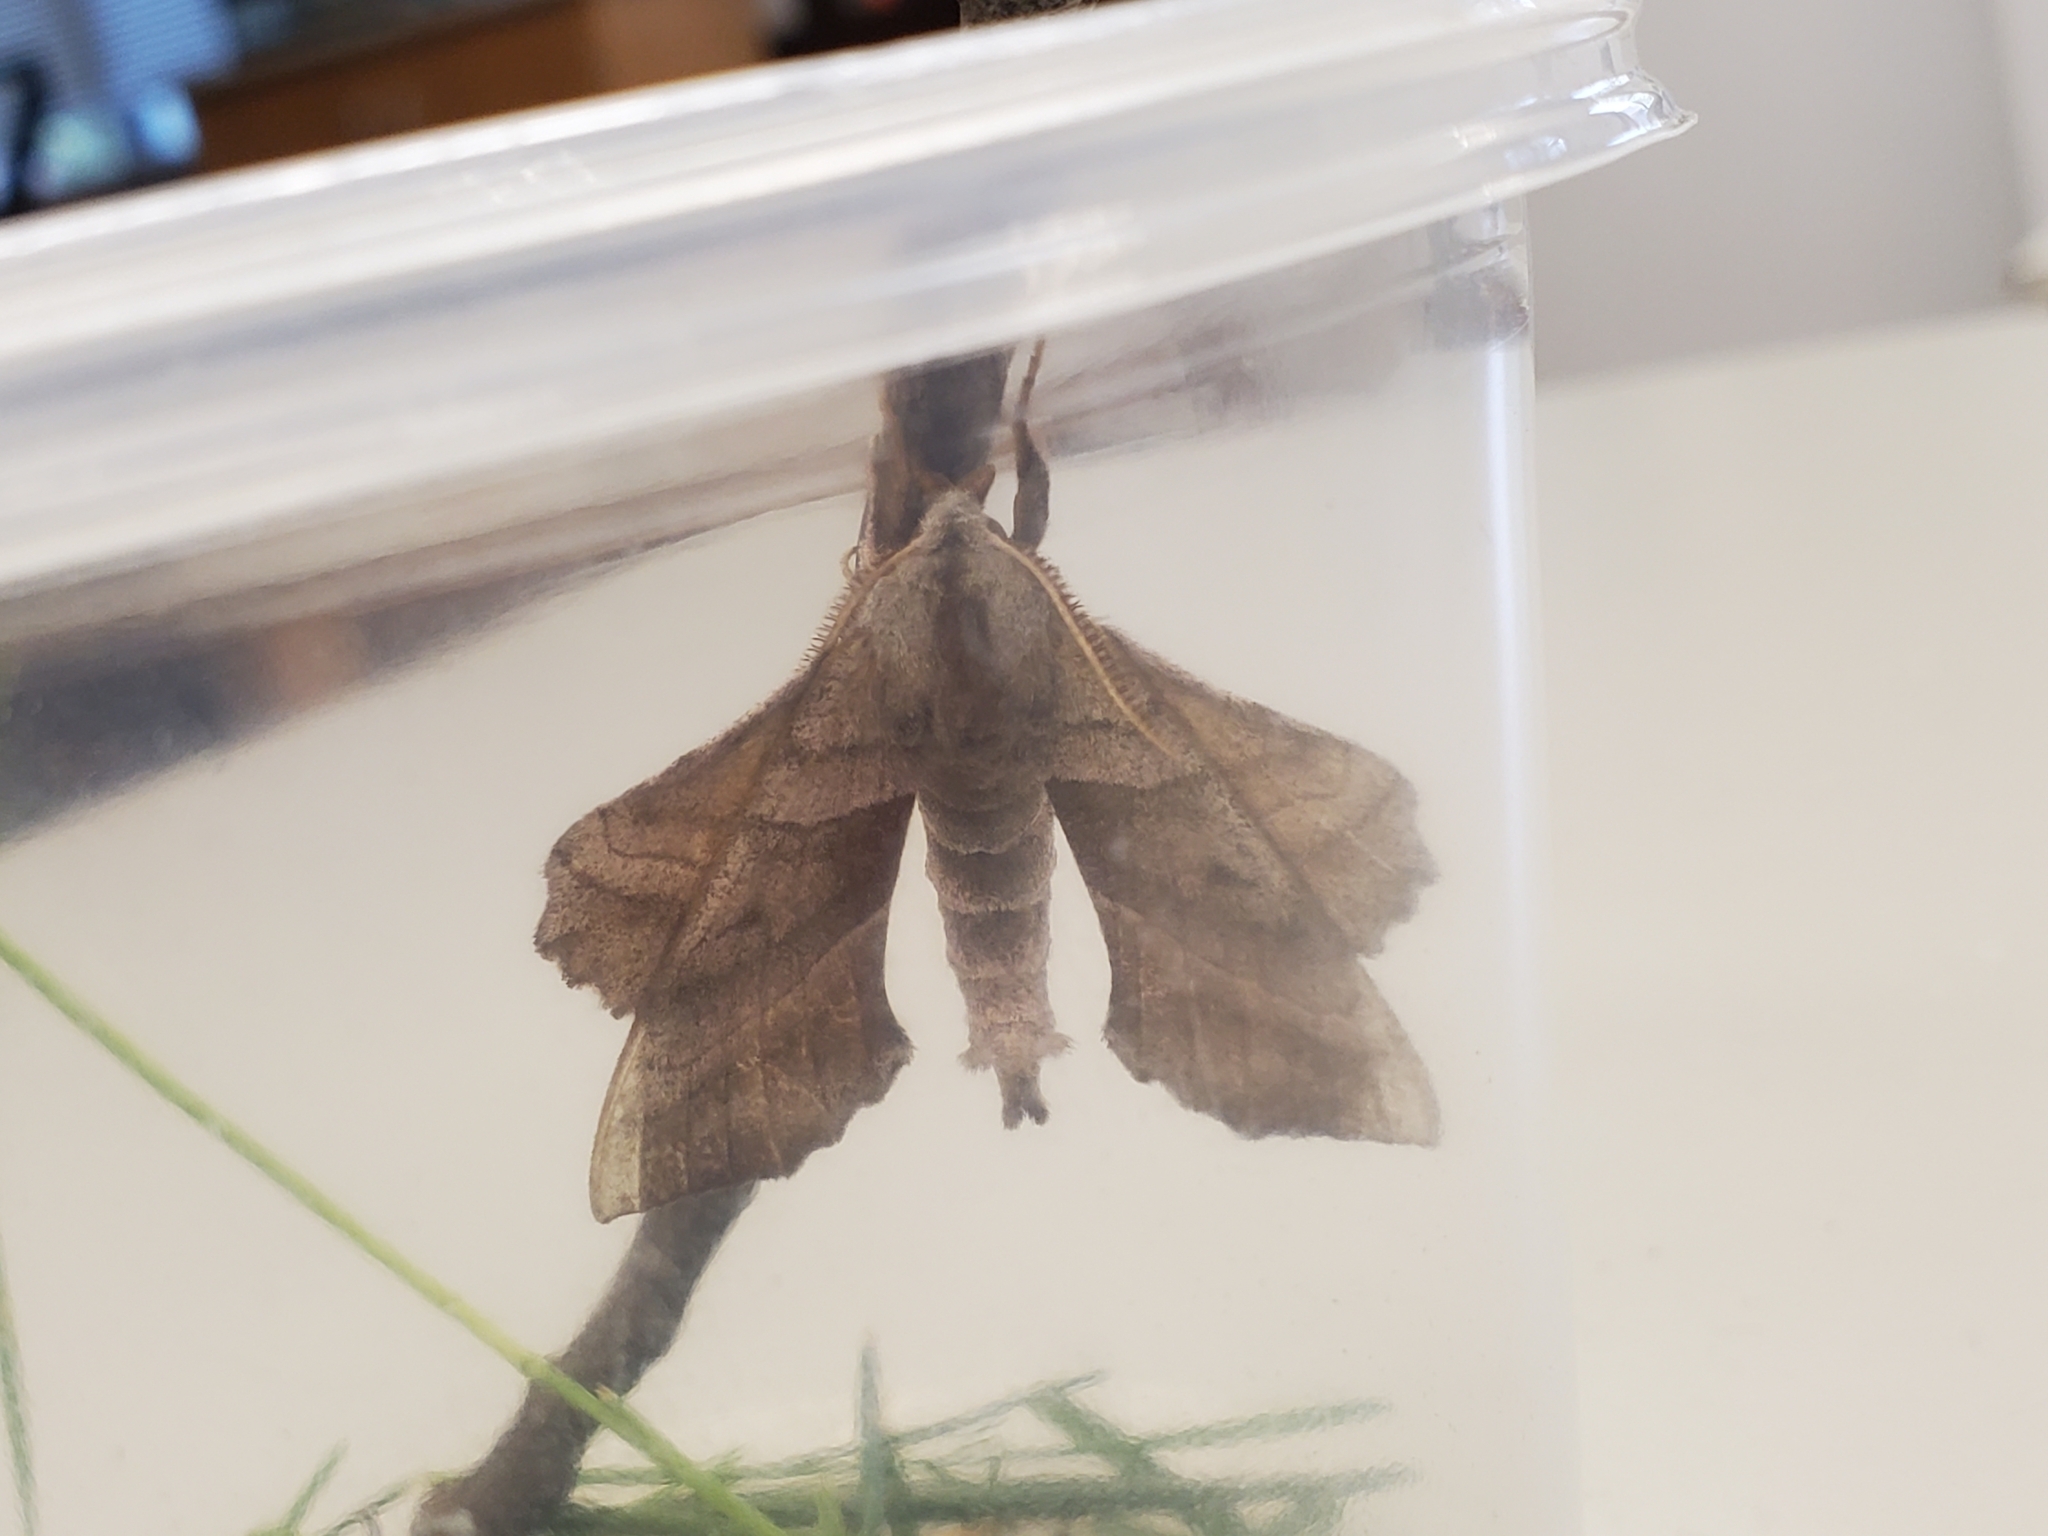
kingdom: Animalia
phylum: Arthropoda
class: Insecta
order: Lepidoptera
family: Sphingidae
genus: Amorpha
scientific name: Amorpha juglandis
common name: Walnut sphinx
